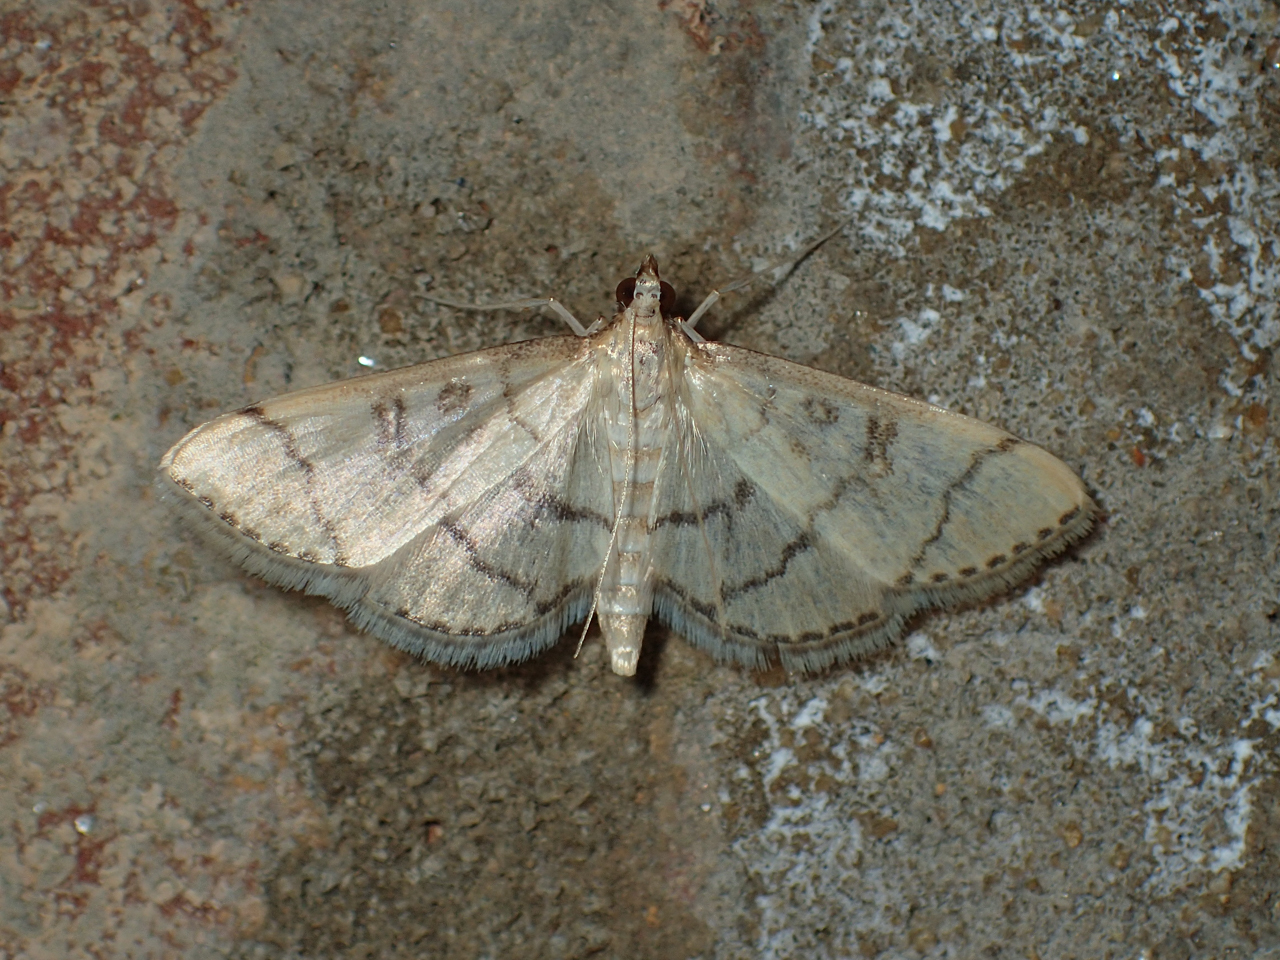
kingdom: Animalia
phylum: Arthropoda
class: Insecta
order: Lepidoptera
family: Crambidae
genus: Lamprosema
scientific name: Lamprosema Blepharomastix ranalis
